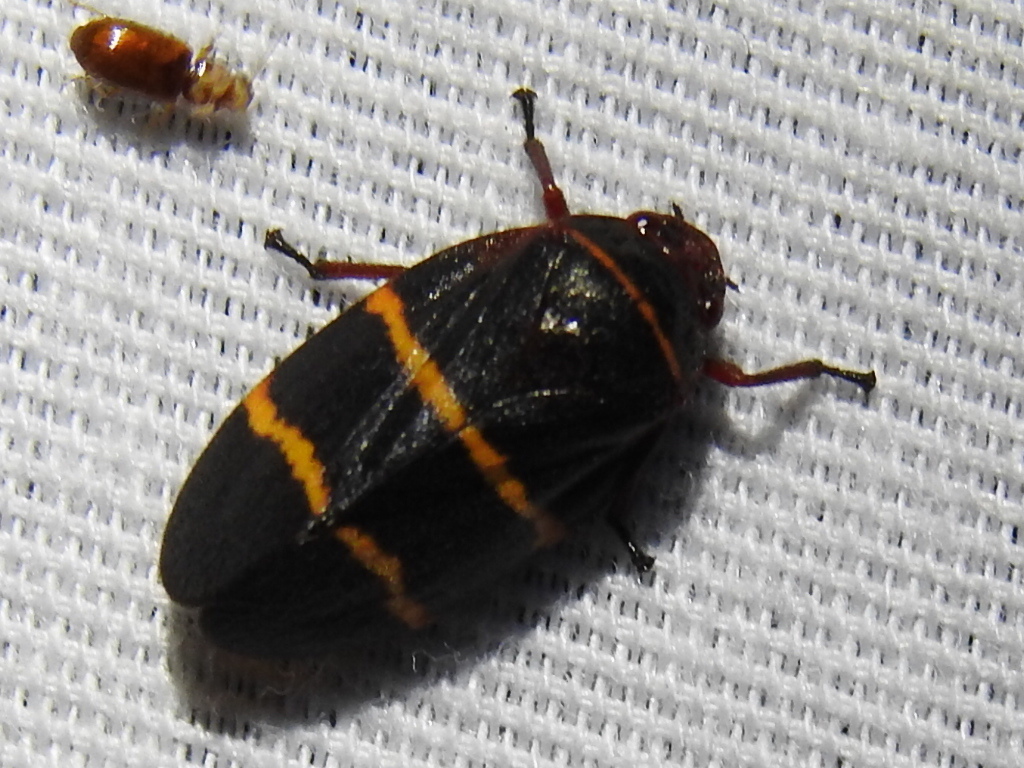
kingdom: Animalia
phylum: Arthropoda
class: Insecta
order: Hemiptera
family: Cercopidae
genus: Prosapia
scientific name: Prosapia bicincta
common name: Twolined spittlebug
